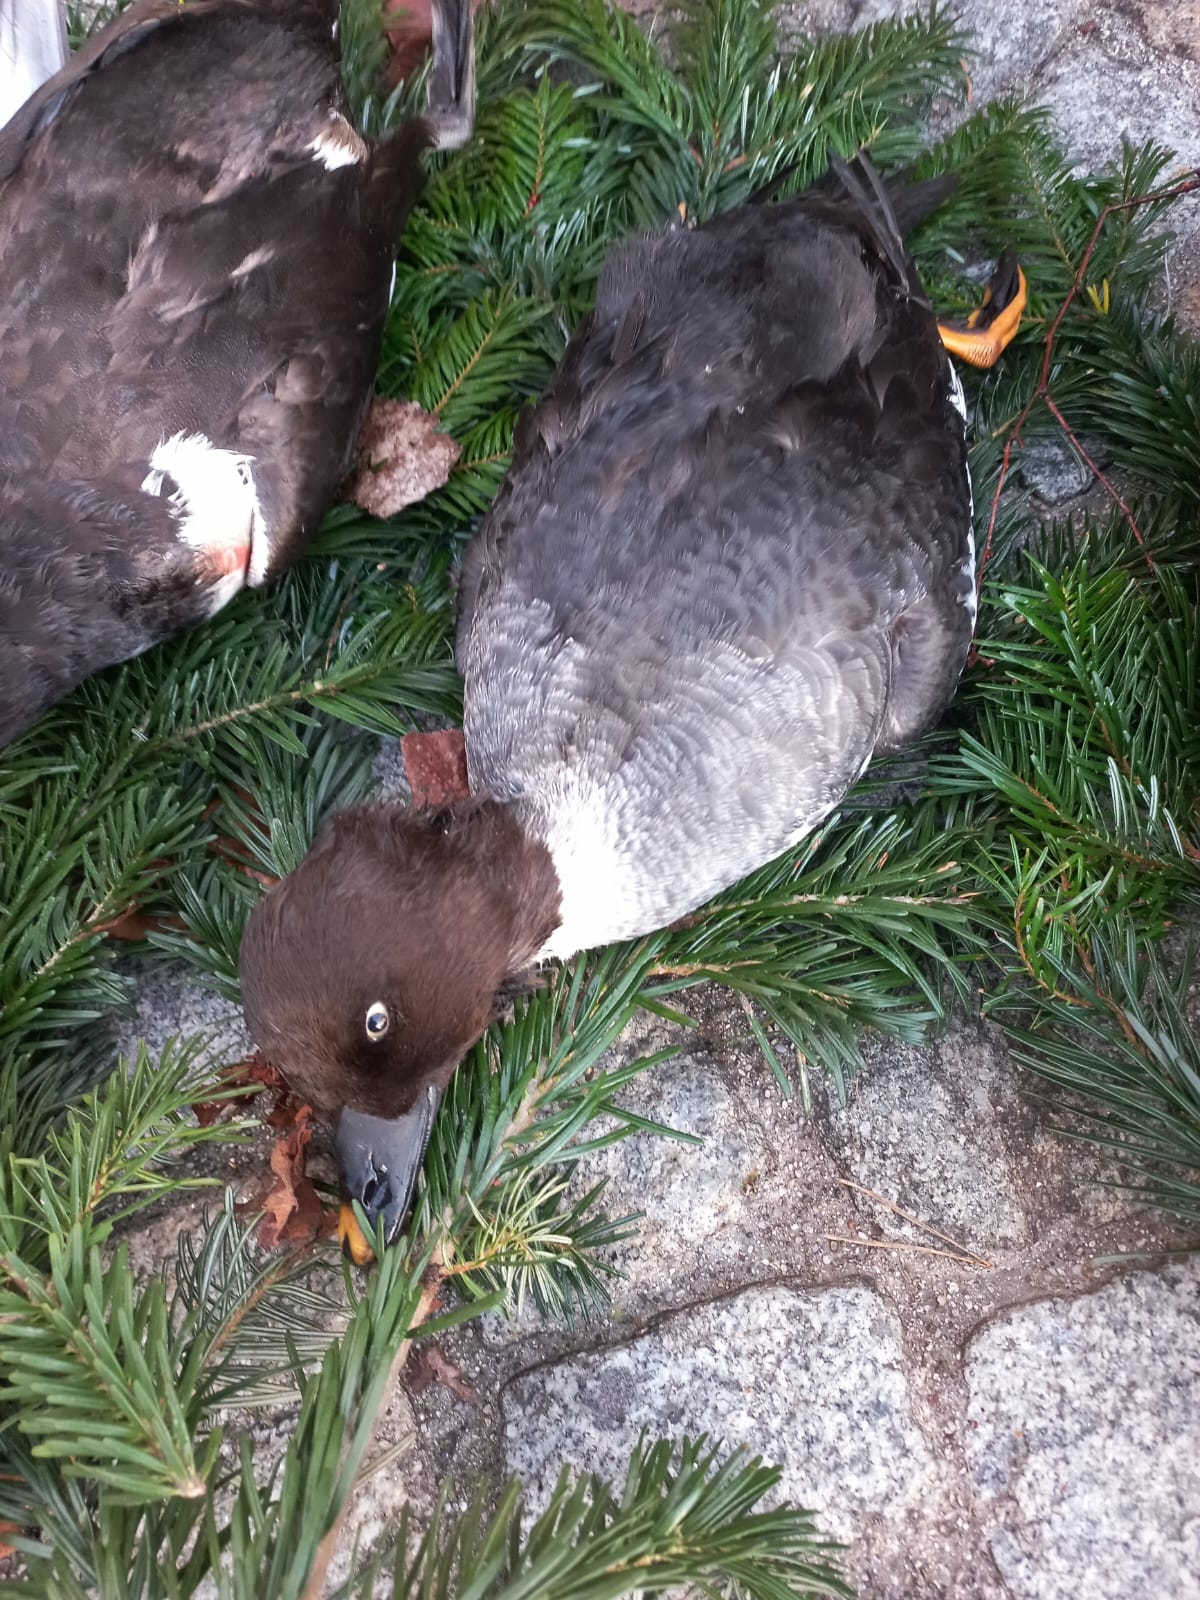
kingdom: Animalia
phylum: Chordata
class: Aves
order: Anseriformes
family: Anatidae
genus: Bucephala
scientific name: Bucephala clangula
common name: Common goldeneye
